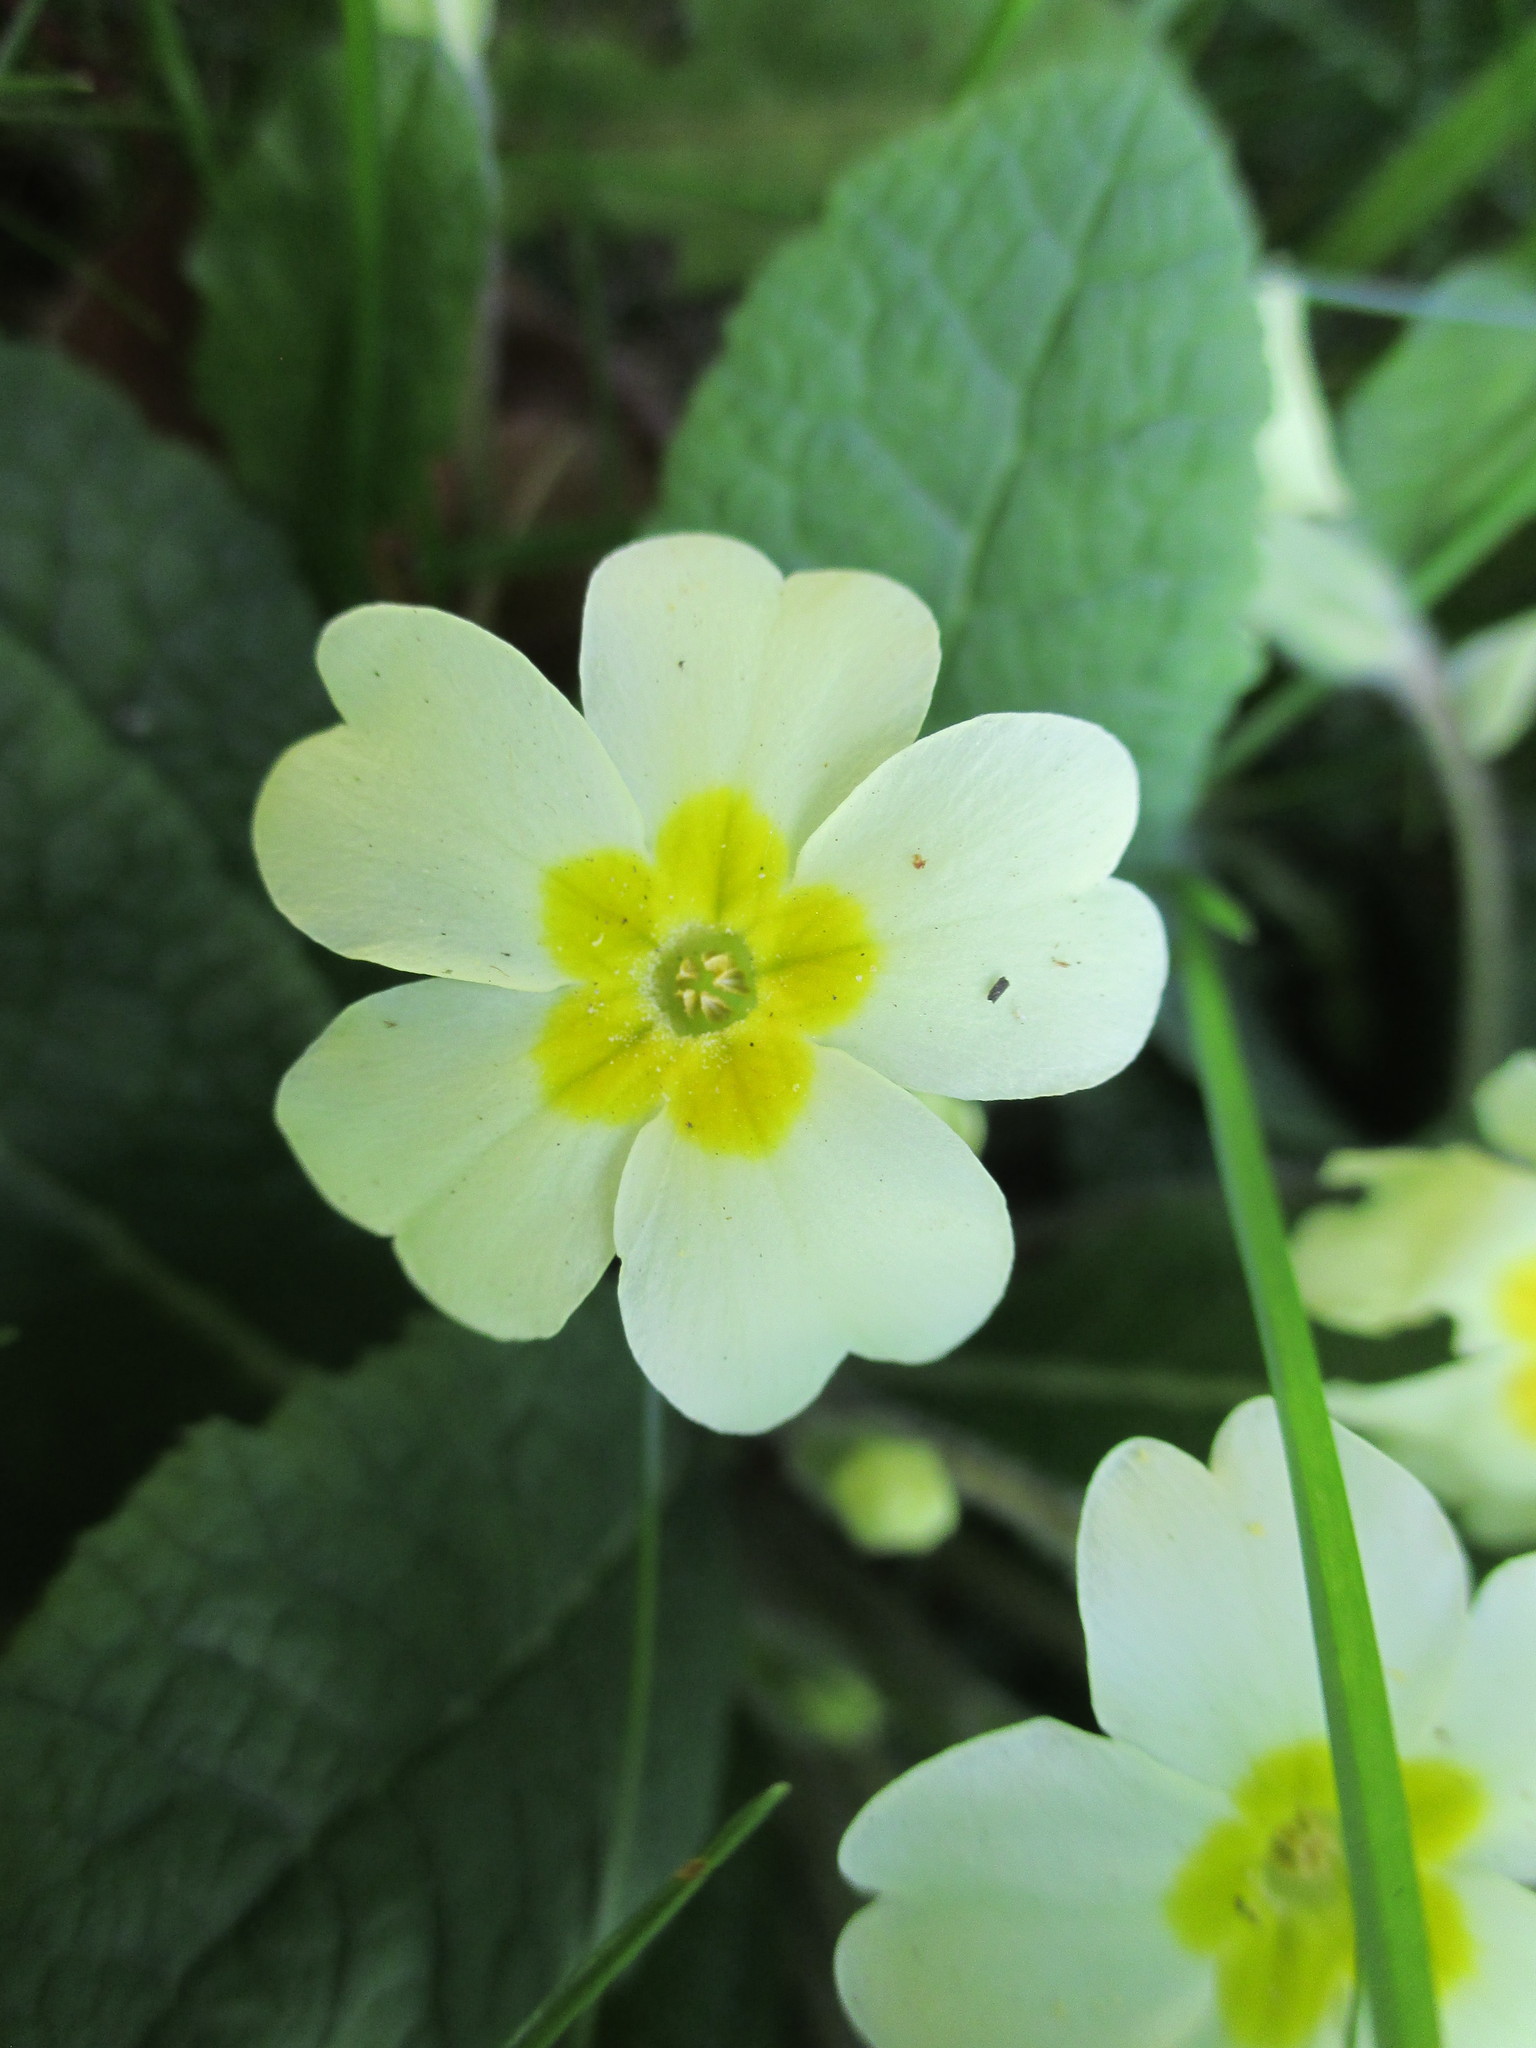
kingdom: Plantae
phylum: Tracheophyta
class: Magnoliopsida
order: Ericales
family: Primulaceae
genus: Primula
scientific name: Primula vulgaris
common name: Primrose
